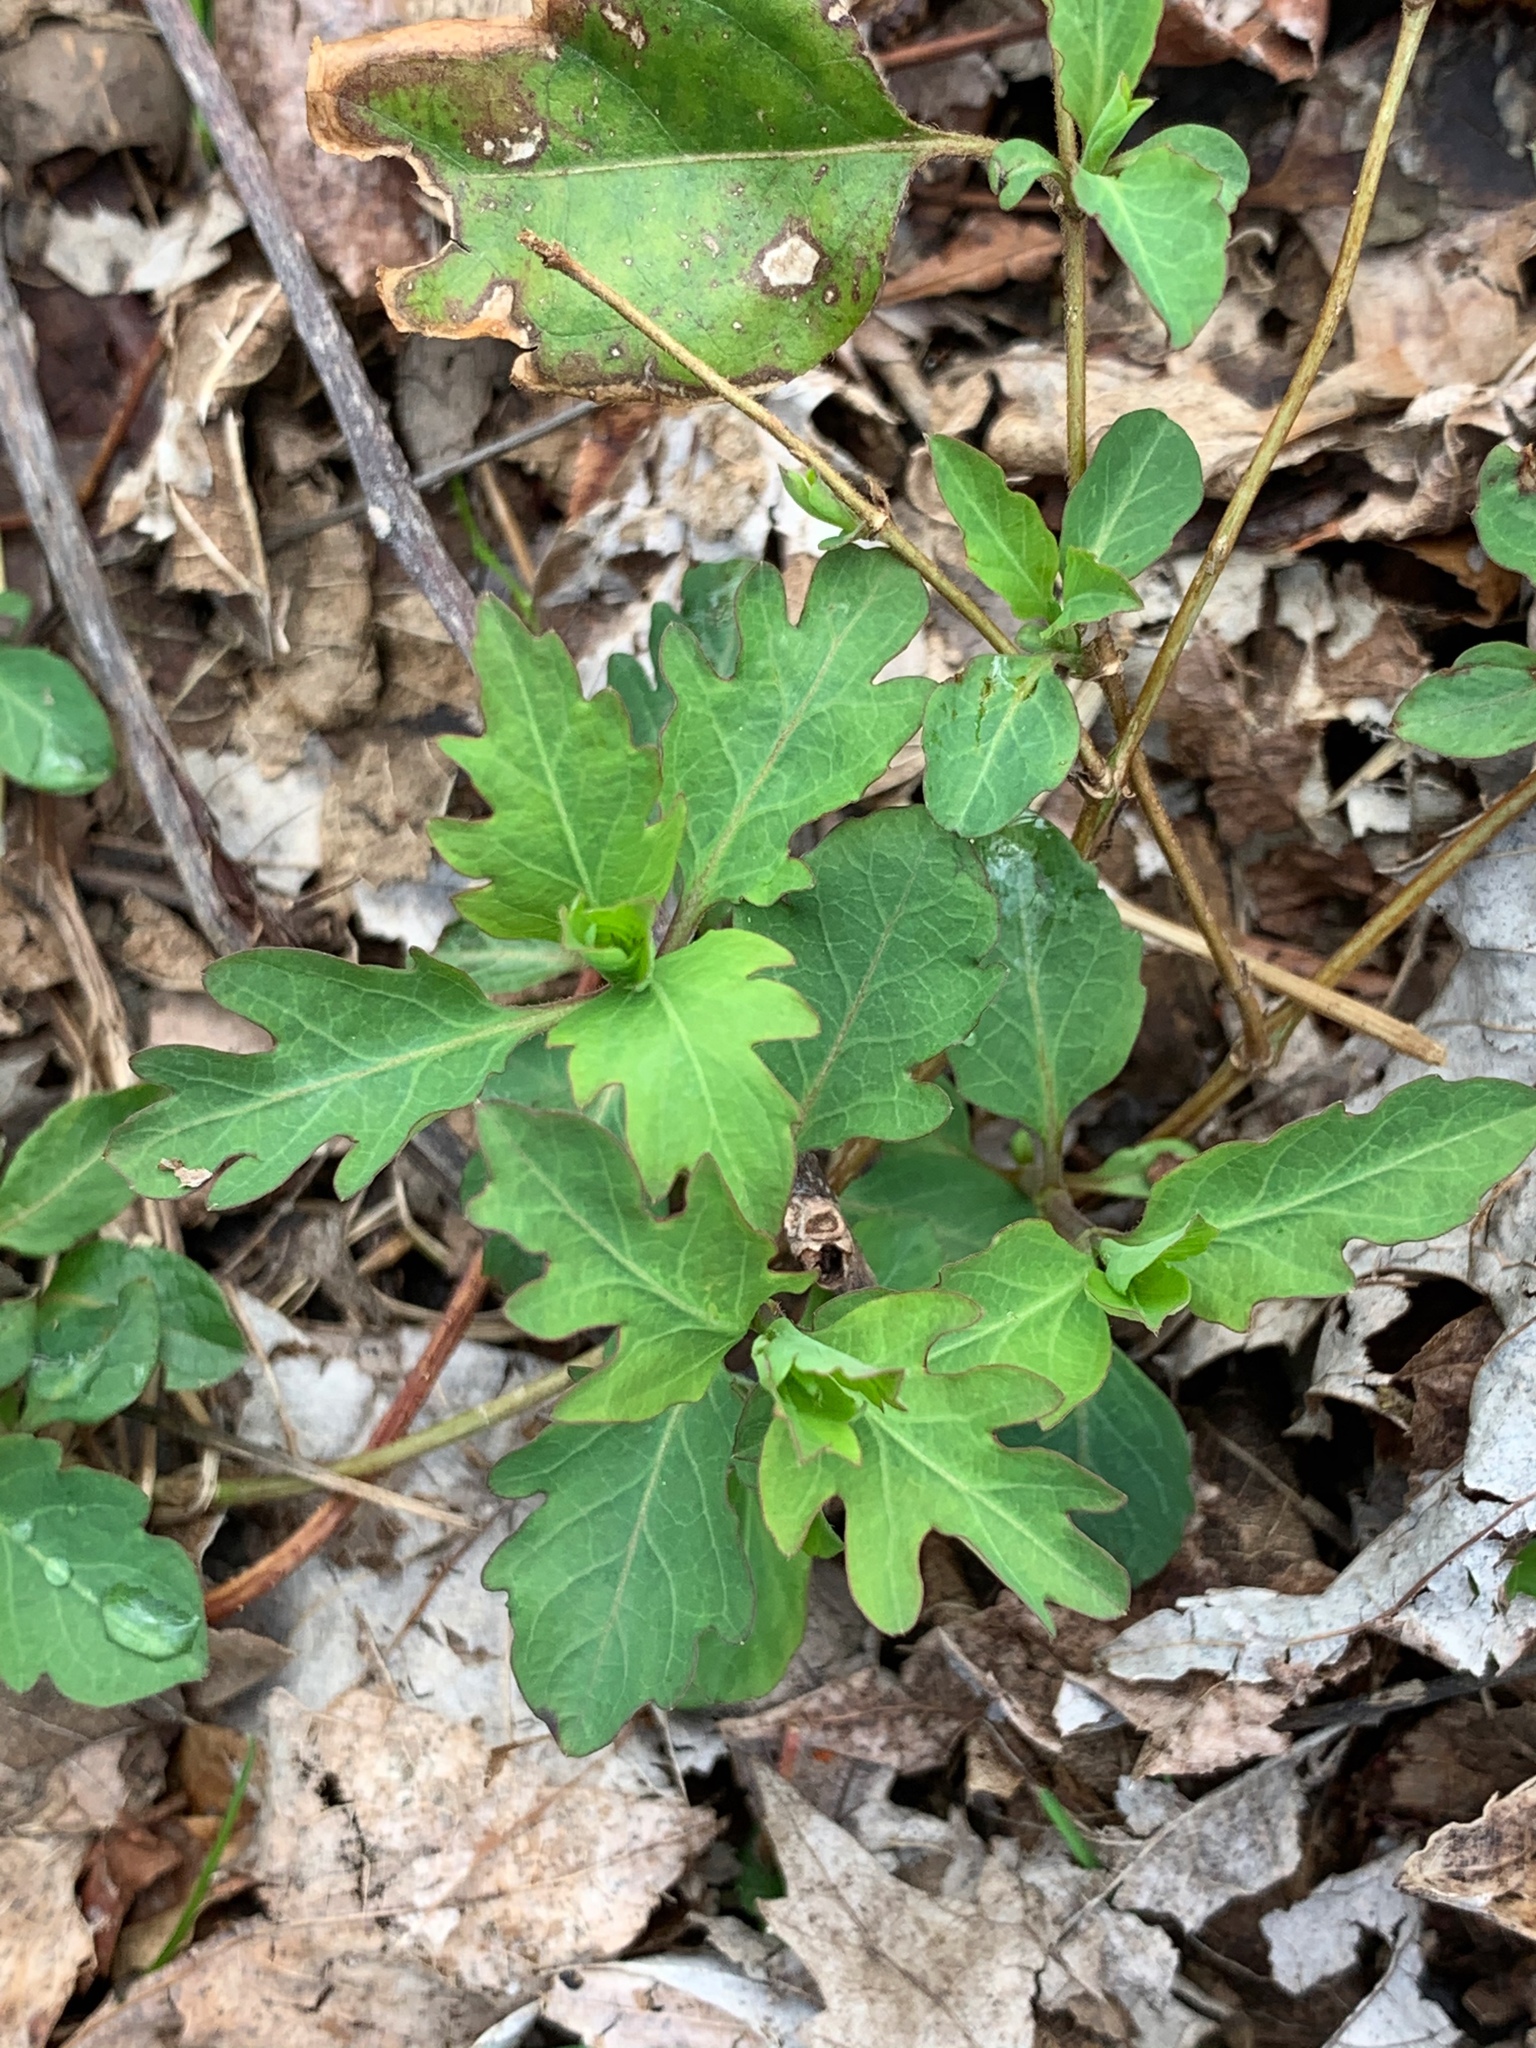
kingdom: Plantae
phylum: Tracheophyta
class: Magnoliopsida
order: Dipsacales
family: Caprifoliaceae
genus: Lonicera
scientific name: Lonicera japonica
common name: Japanese honeysuckle
